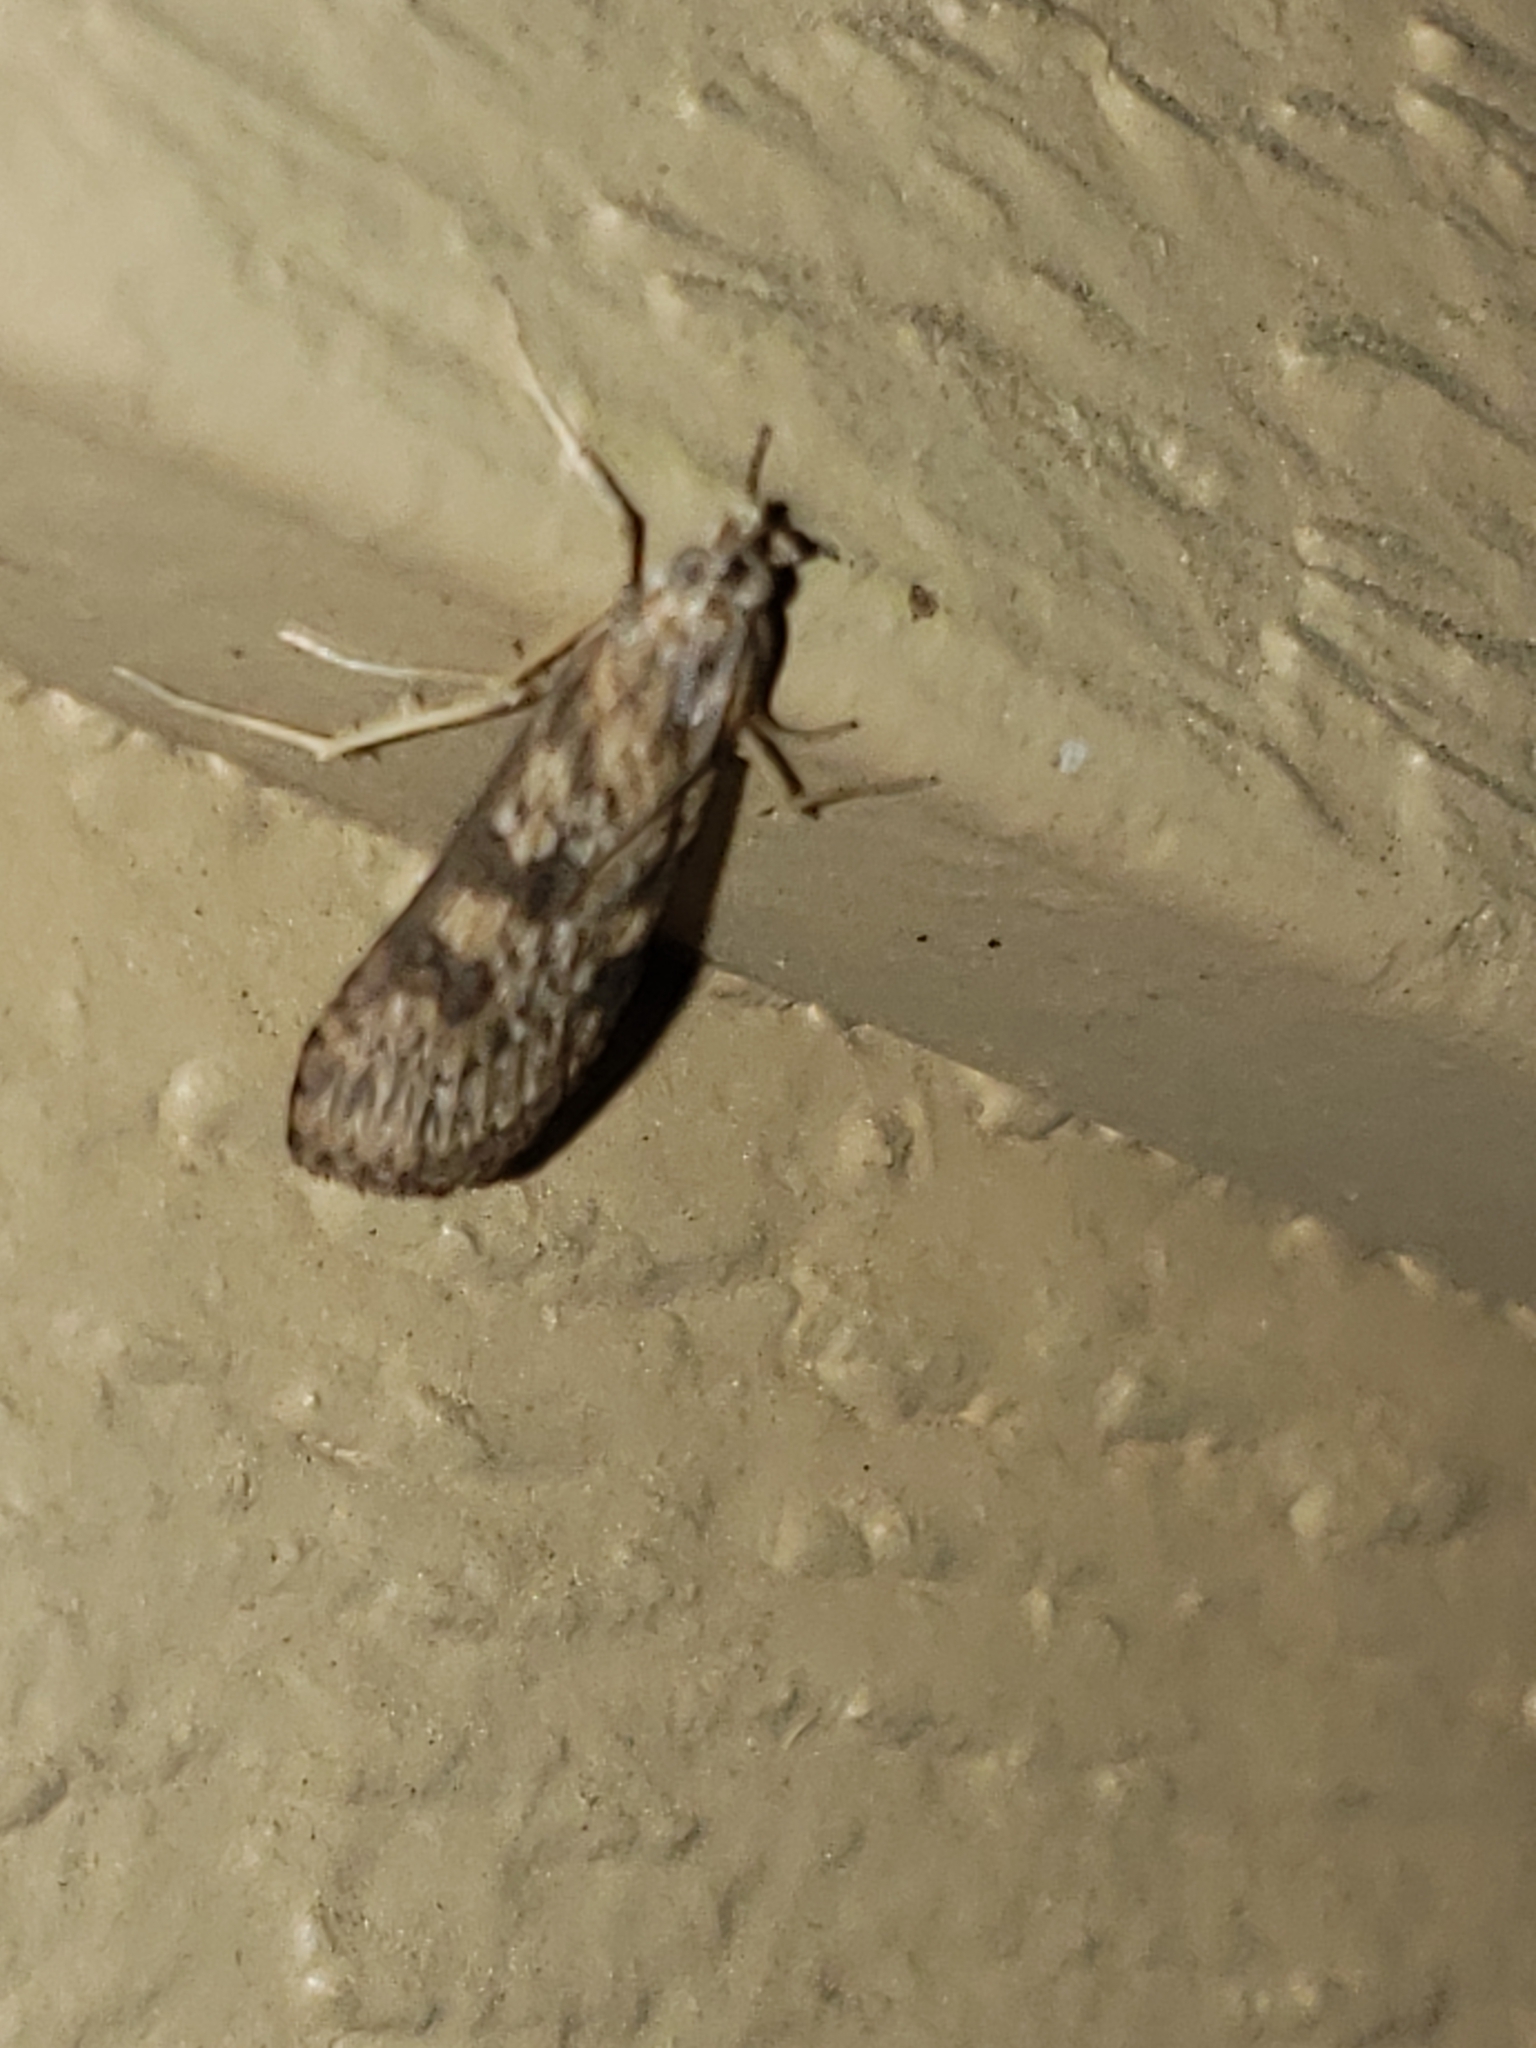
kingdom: Animalia
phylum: Arthropoda
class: Insecta
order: Lepidoptera
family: Crambidae
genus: Nomophila
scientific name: Nomophila nearctica
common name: American rush veneer
